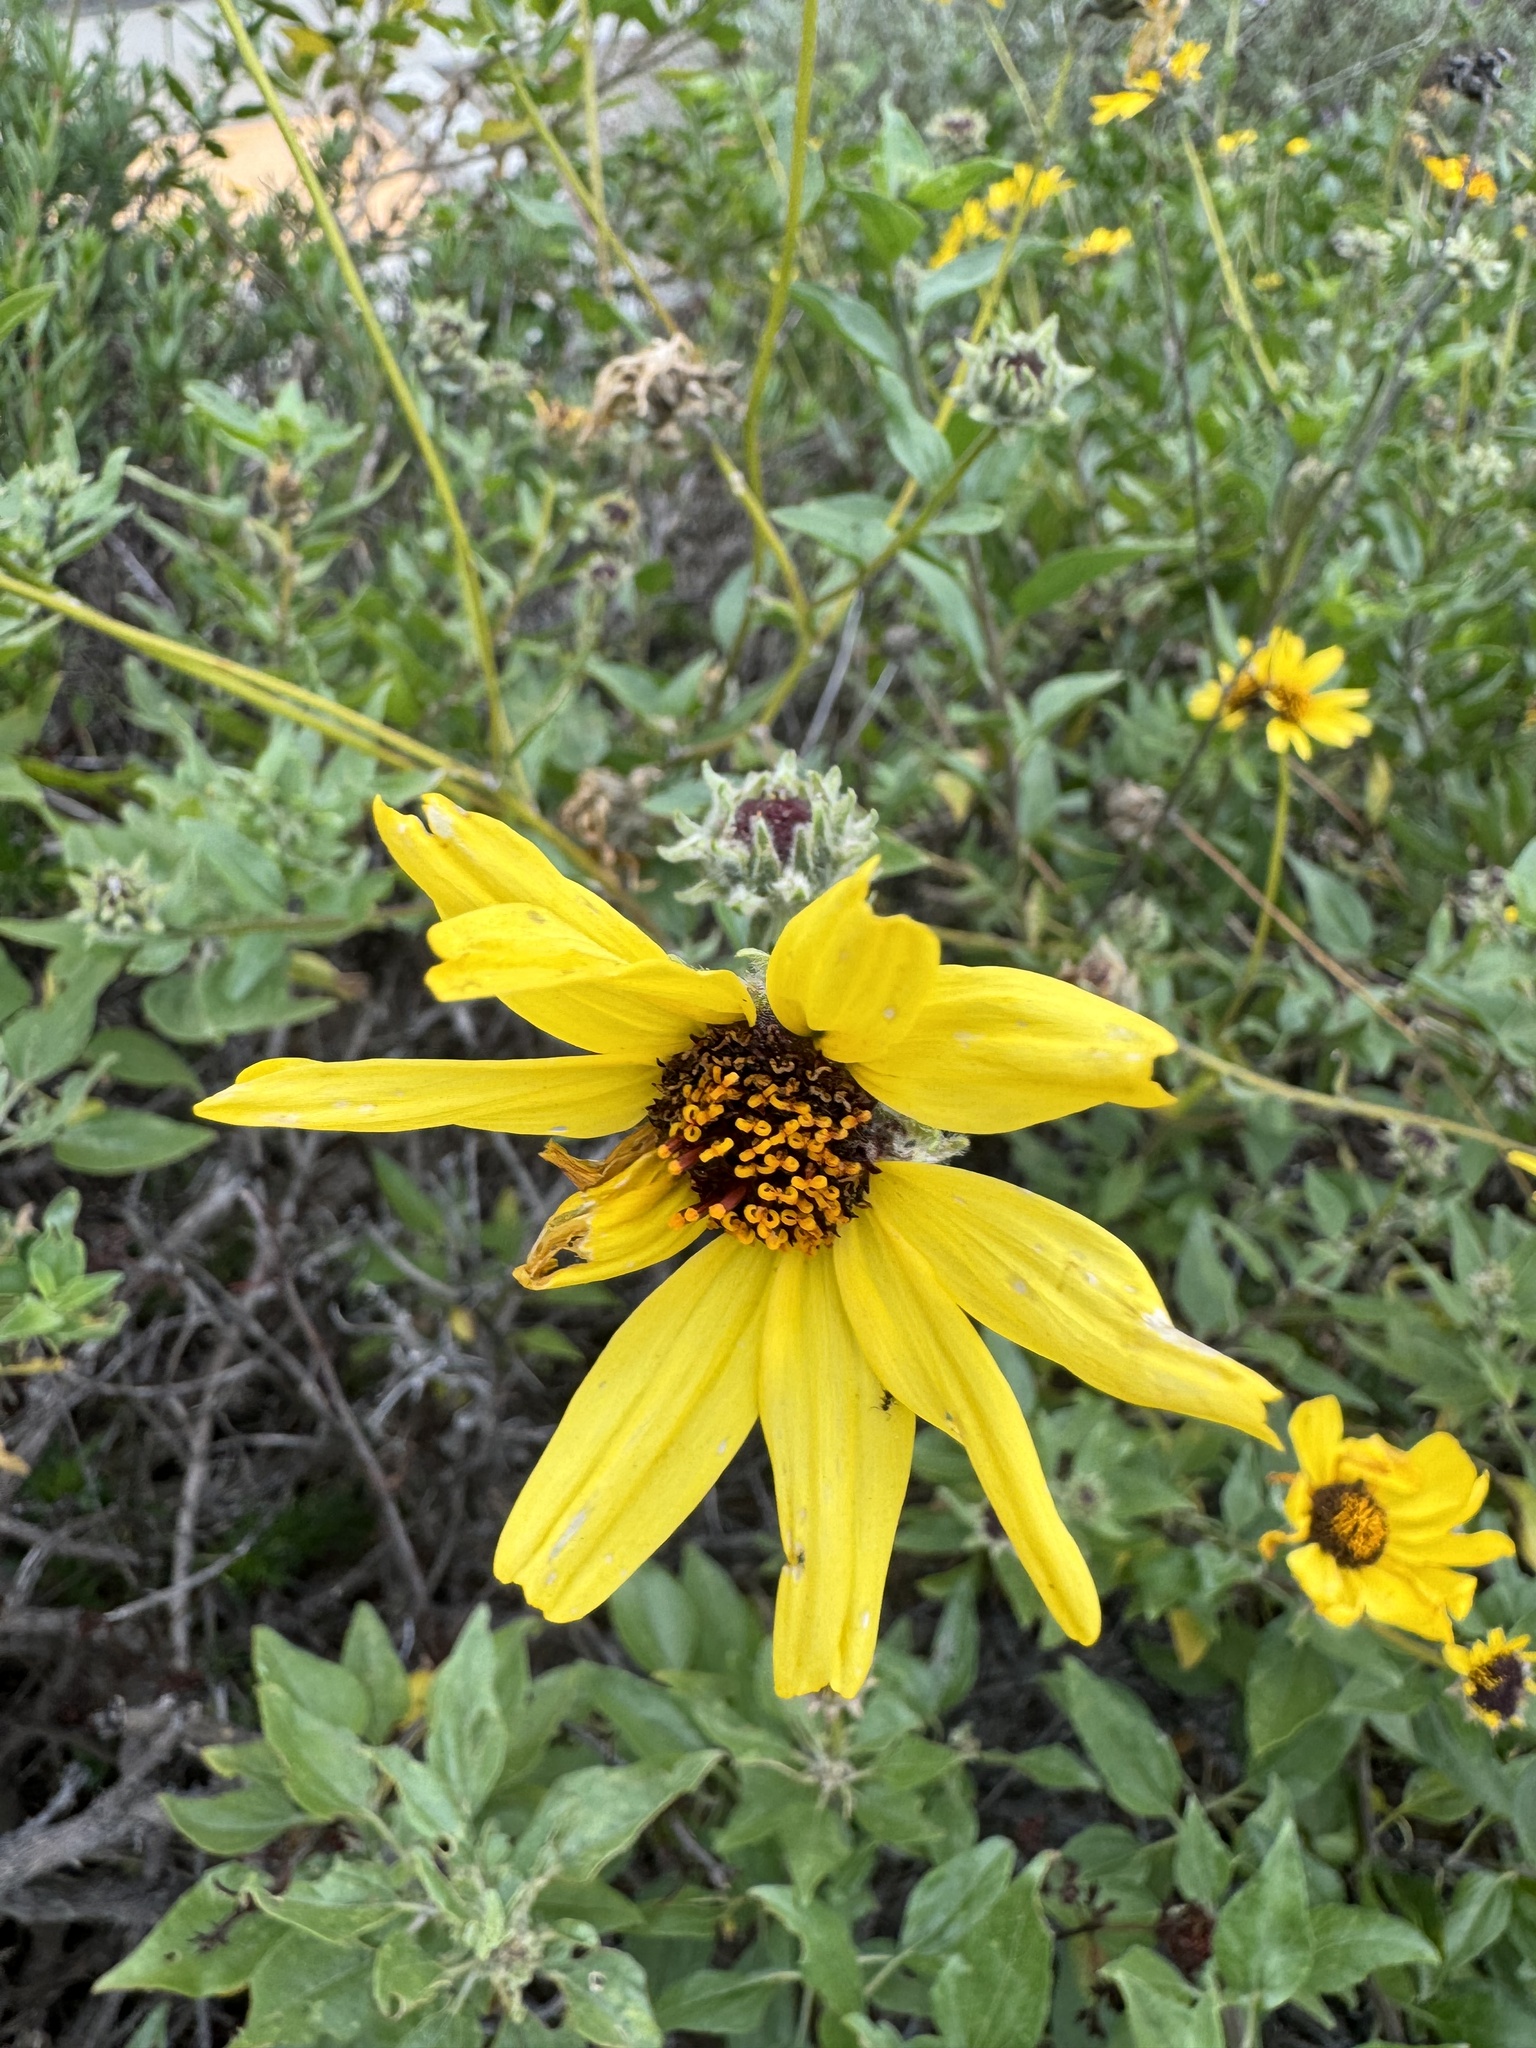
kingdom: Plantae
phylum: Tracheophyta
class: Magnoliopsida
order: Asterales
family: Asteraceae
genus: Encelia
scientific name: Encelia californica
